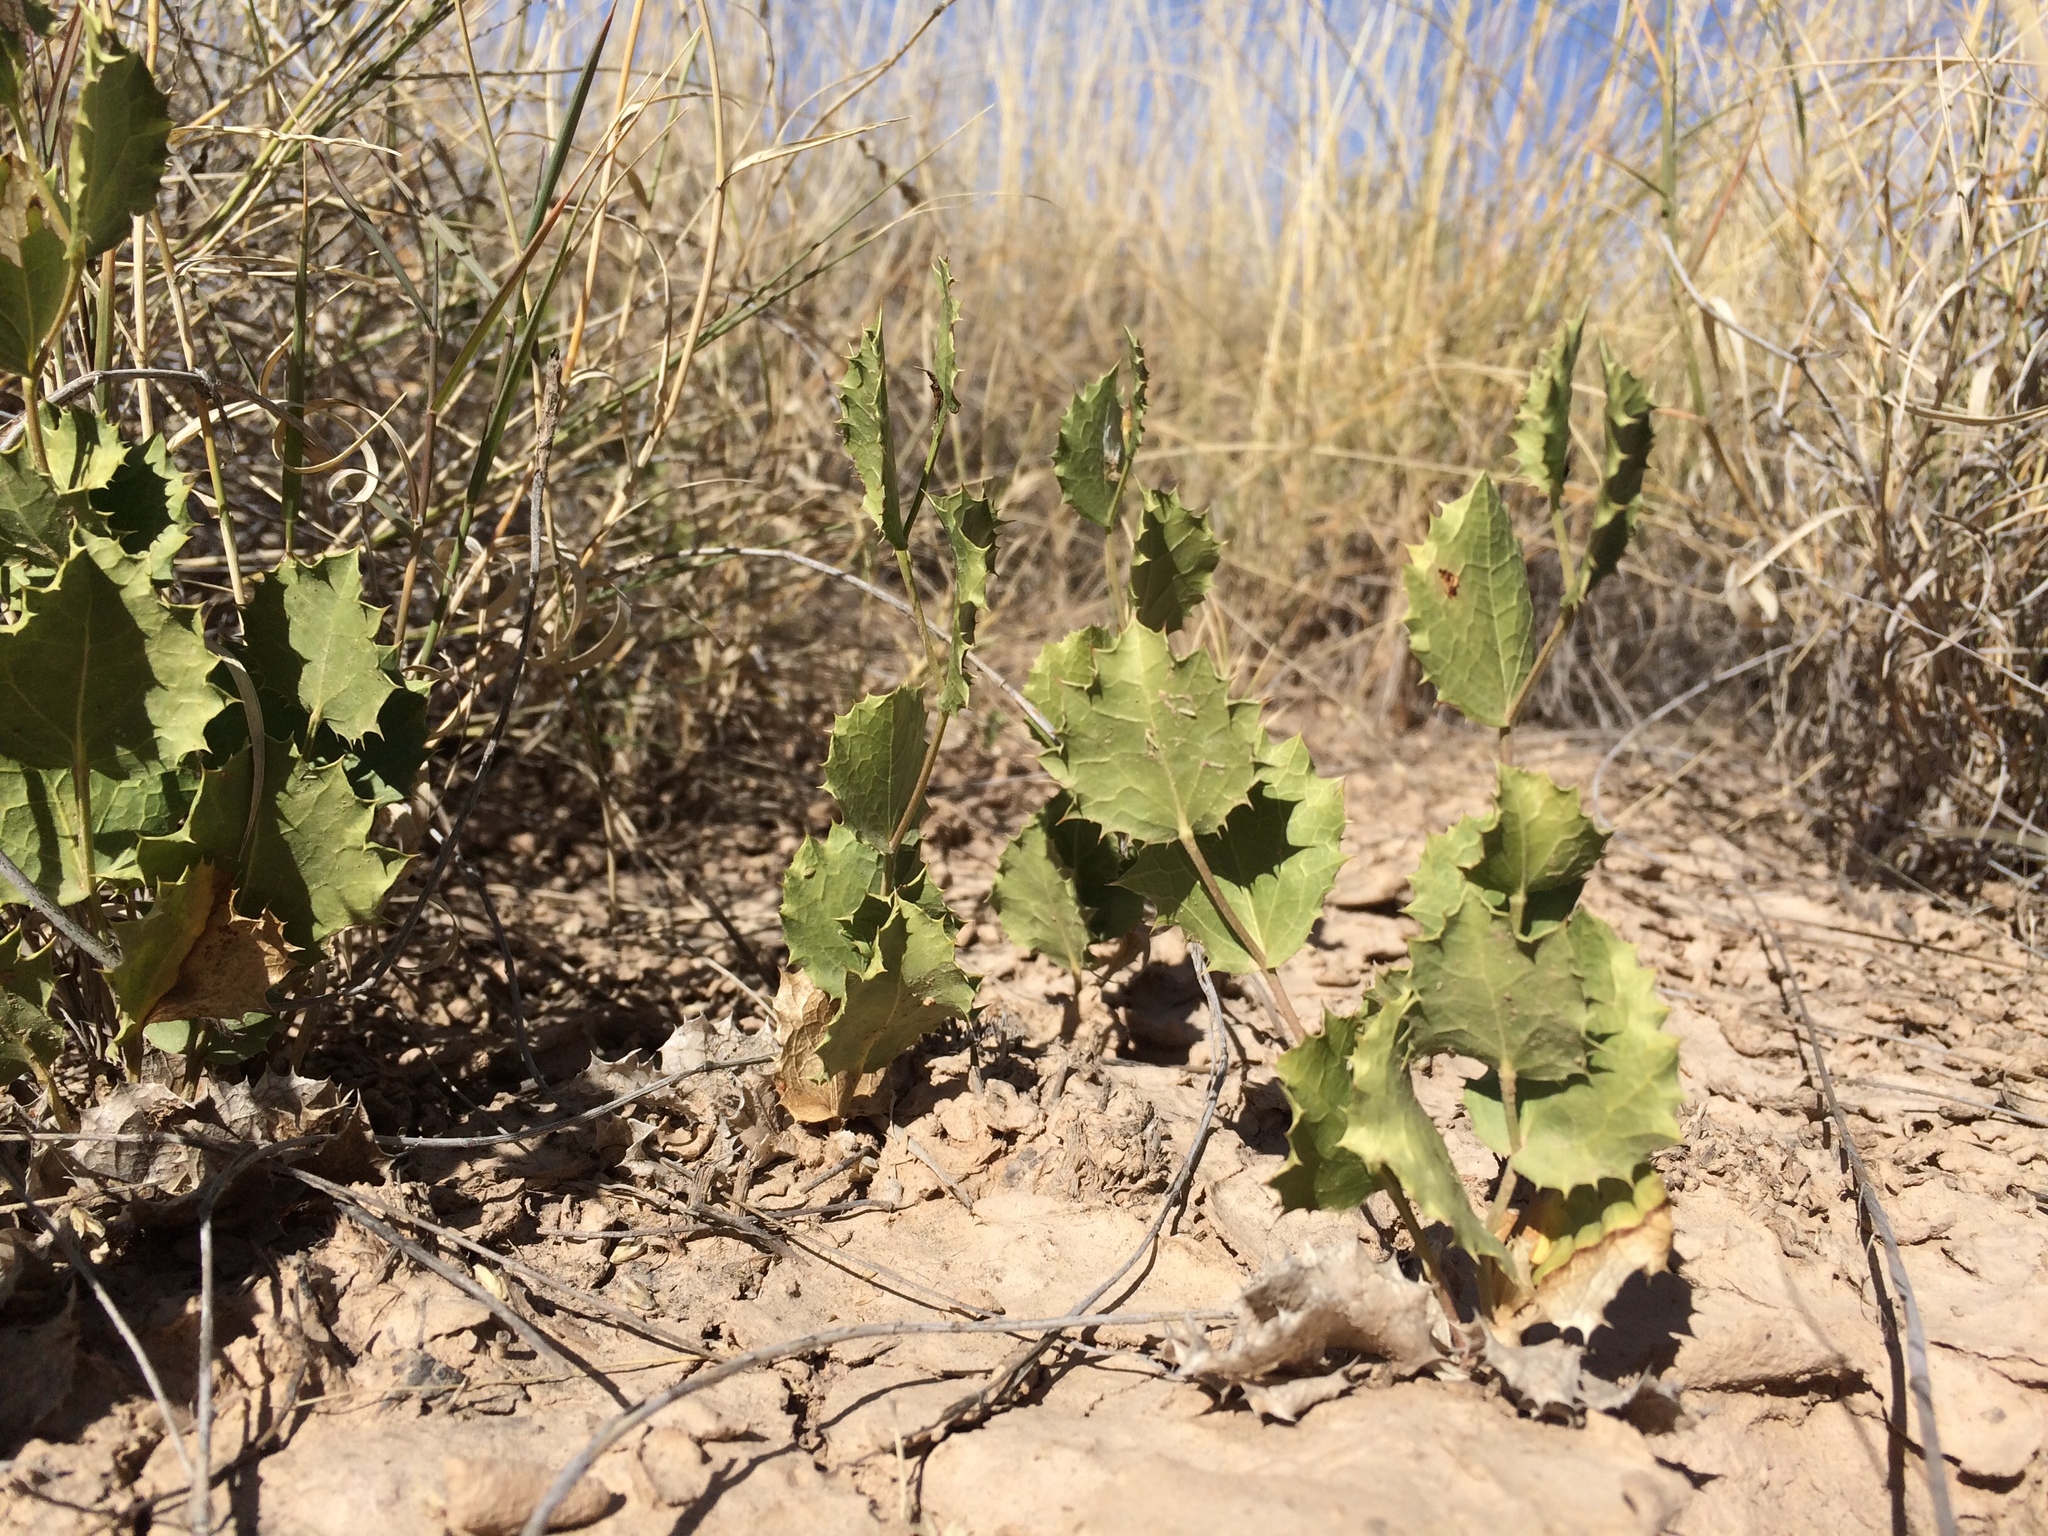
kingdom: Plantae
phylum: Tracheophyta
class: Magnoliopsida
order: Asterales
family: Asteraceae
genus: Acourtia
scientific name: Acourtia nana
